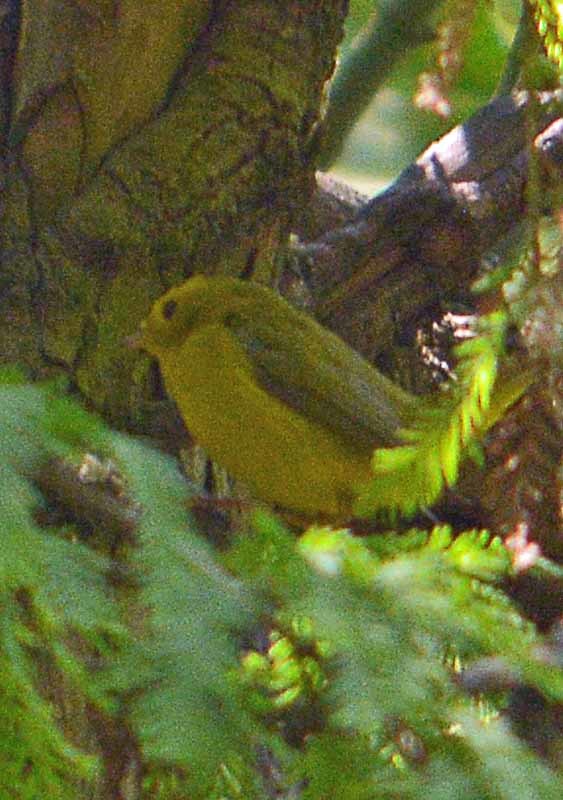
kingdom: Animalia
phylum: Chordata
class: Aves
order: Passeriformes
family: Parulidae
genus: Cardellina
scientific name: Cardellina pusilla
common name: Wilson's warbler
